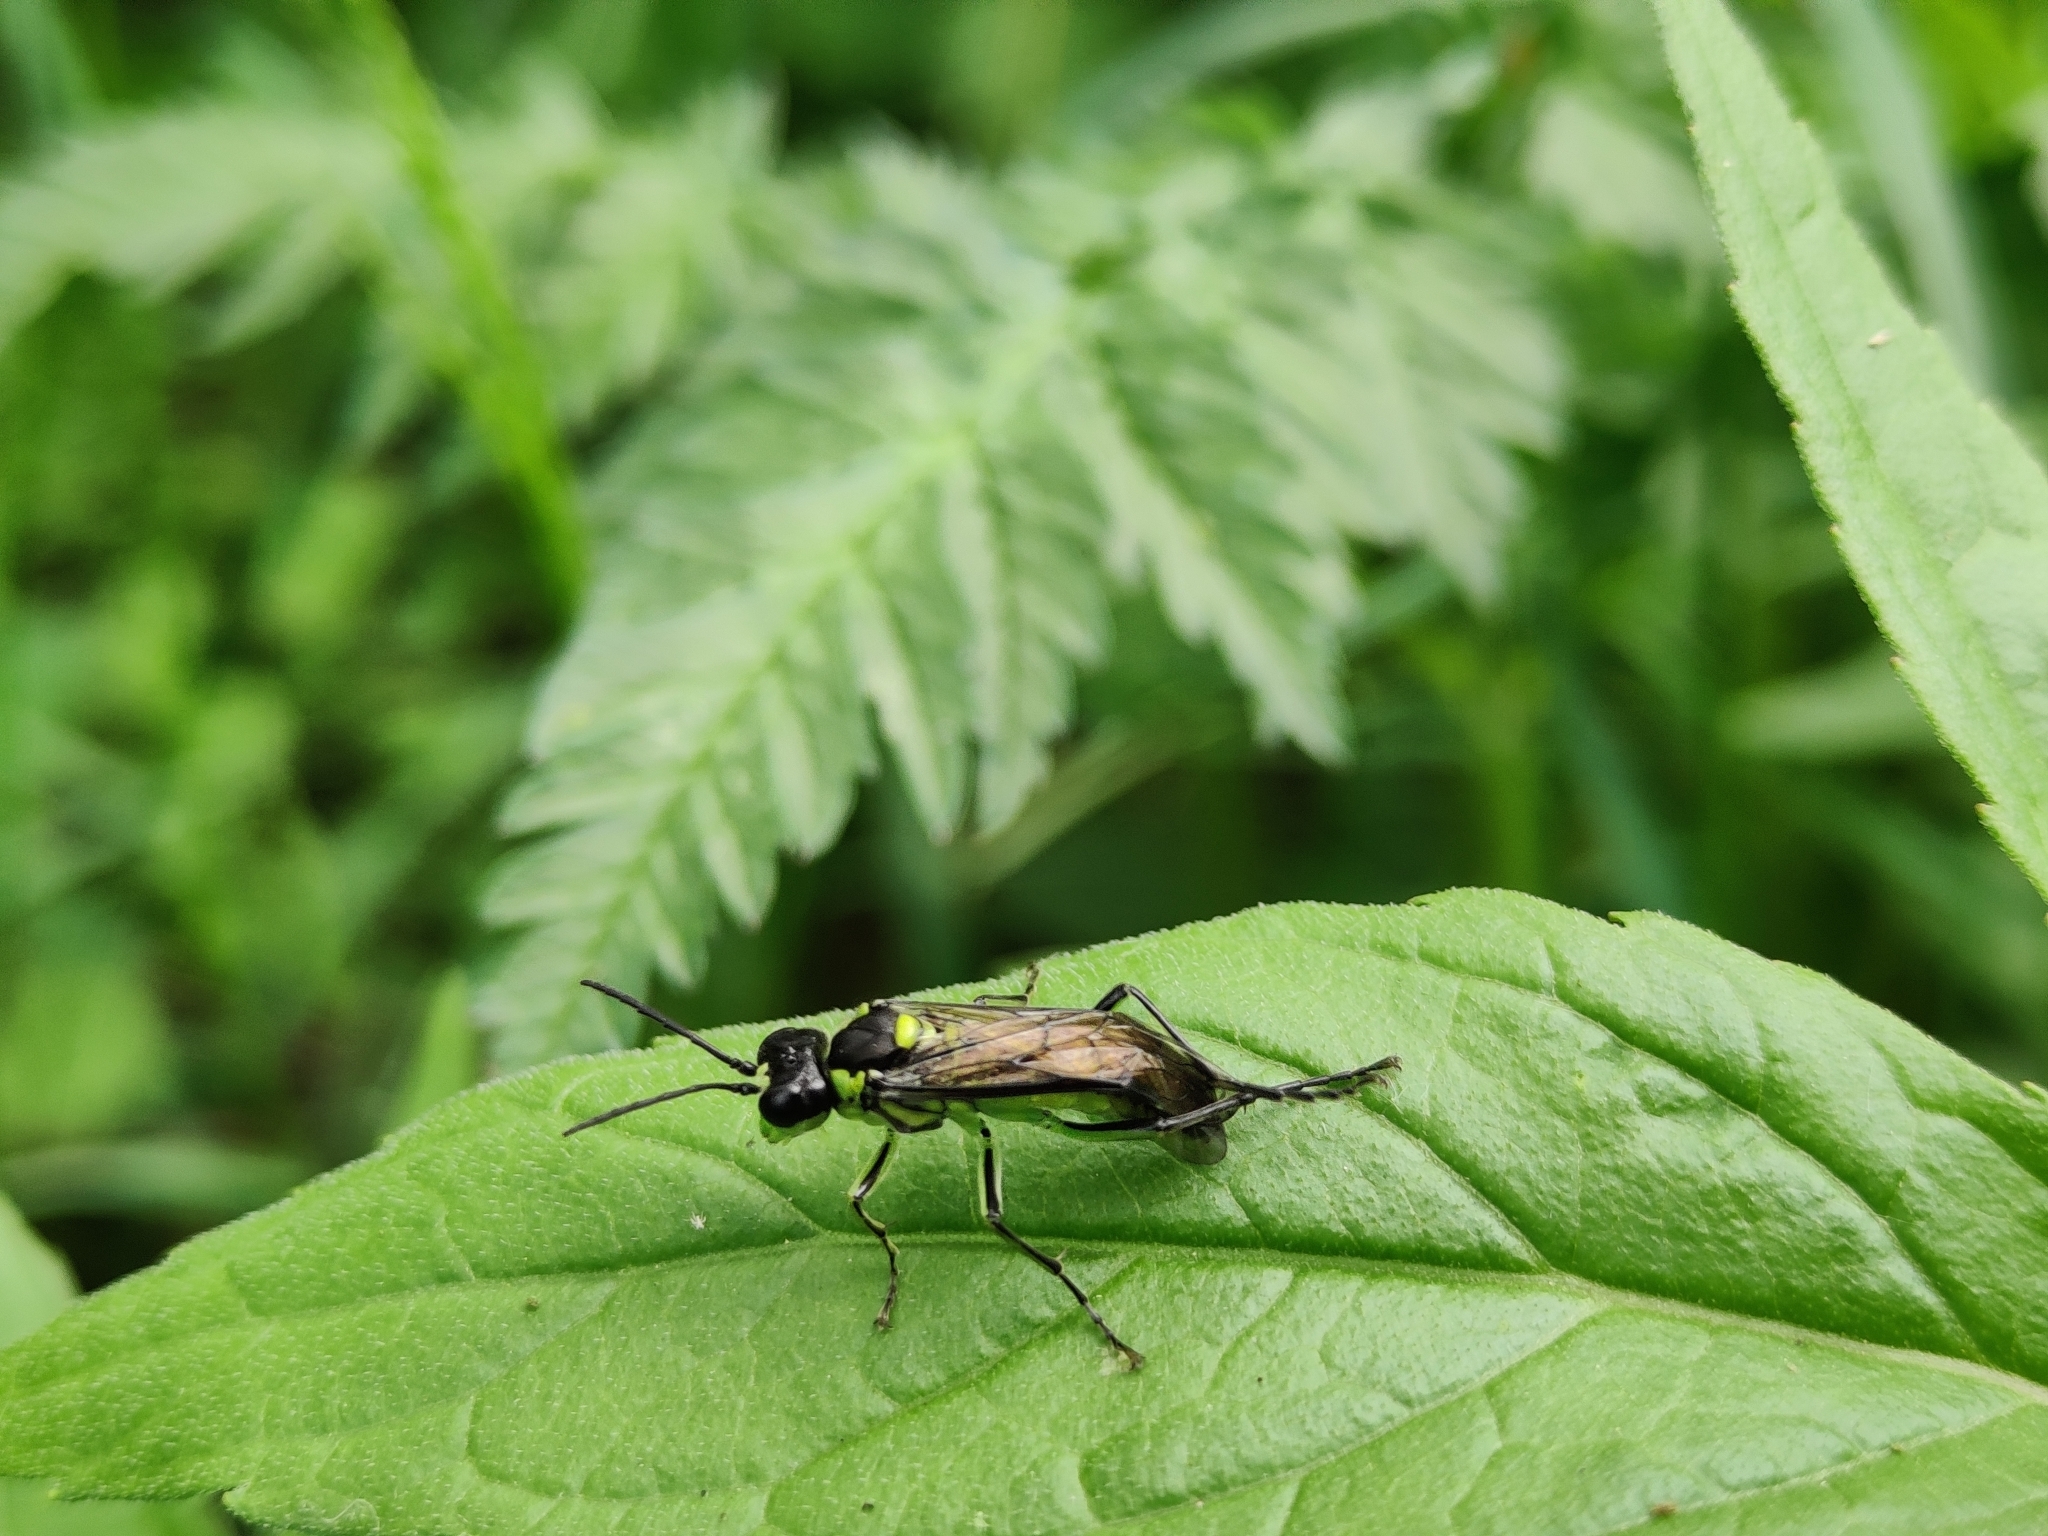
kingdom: Animalia
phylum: Arthropoda
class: Insecta
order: Hymenoptera
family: Tenthredinidae
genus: Tenthredo
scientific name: Tenthredo mesomela
